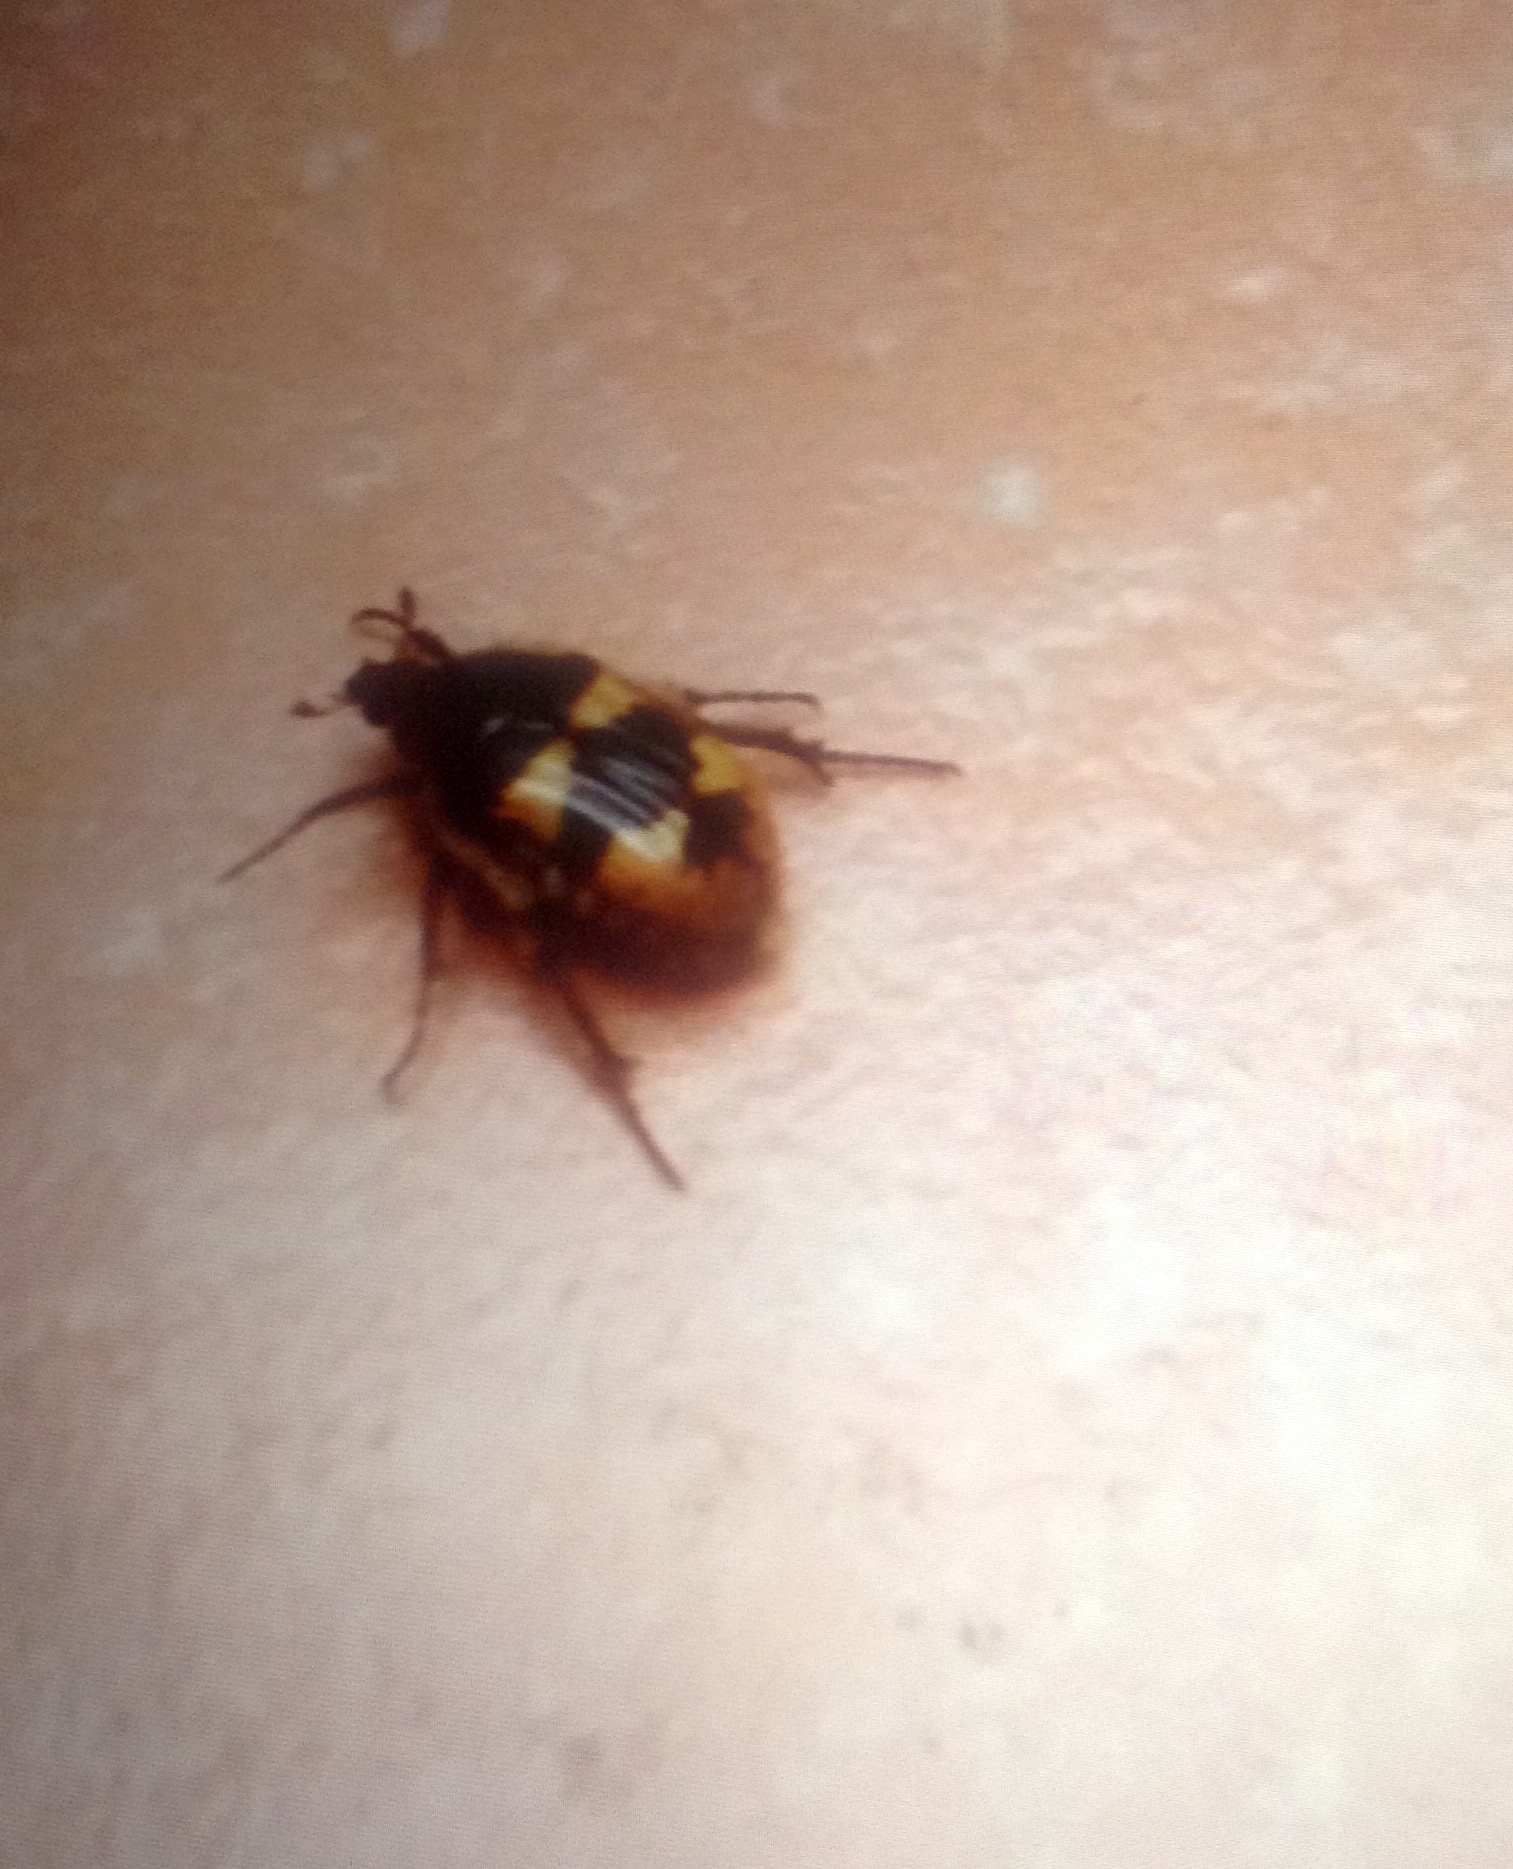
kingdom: Animalia
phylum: Arthropoda
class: Insecta
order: Coleoptera
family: Scarabaeidae
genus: Euphoria
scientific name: Euphoria basalis
